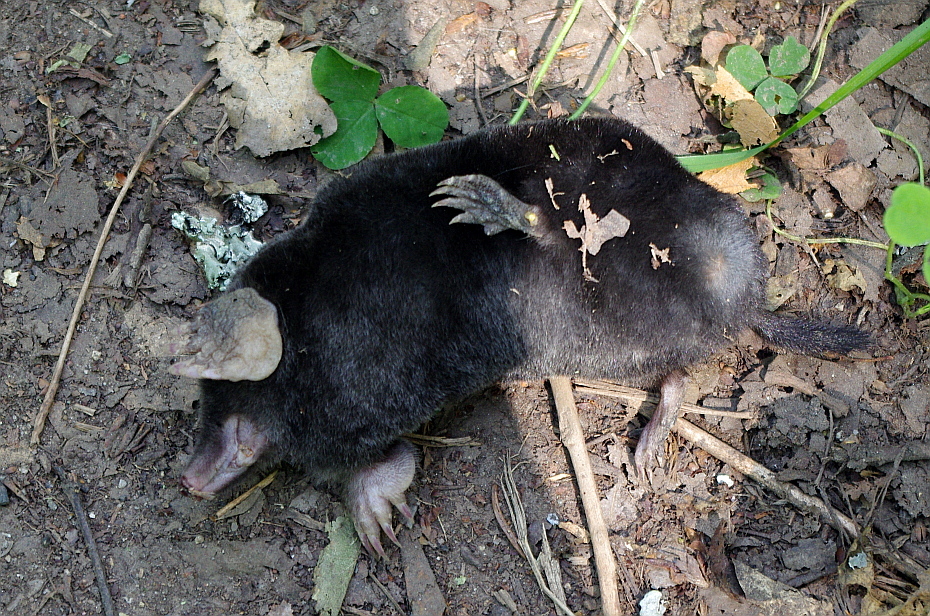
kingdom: Animalia
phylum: Chordata
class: Mammalia
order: Soricomorpha
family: Talpidae
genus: Talpa
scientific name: Talpa europaea
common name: European mole
